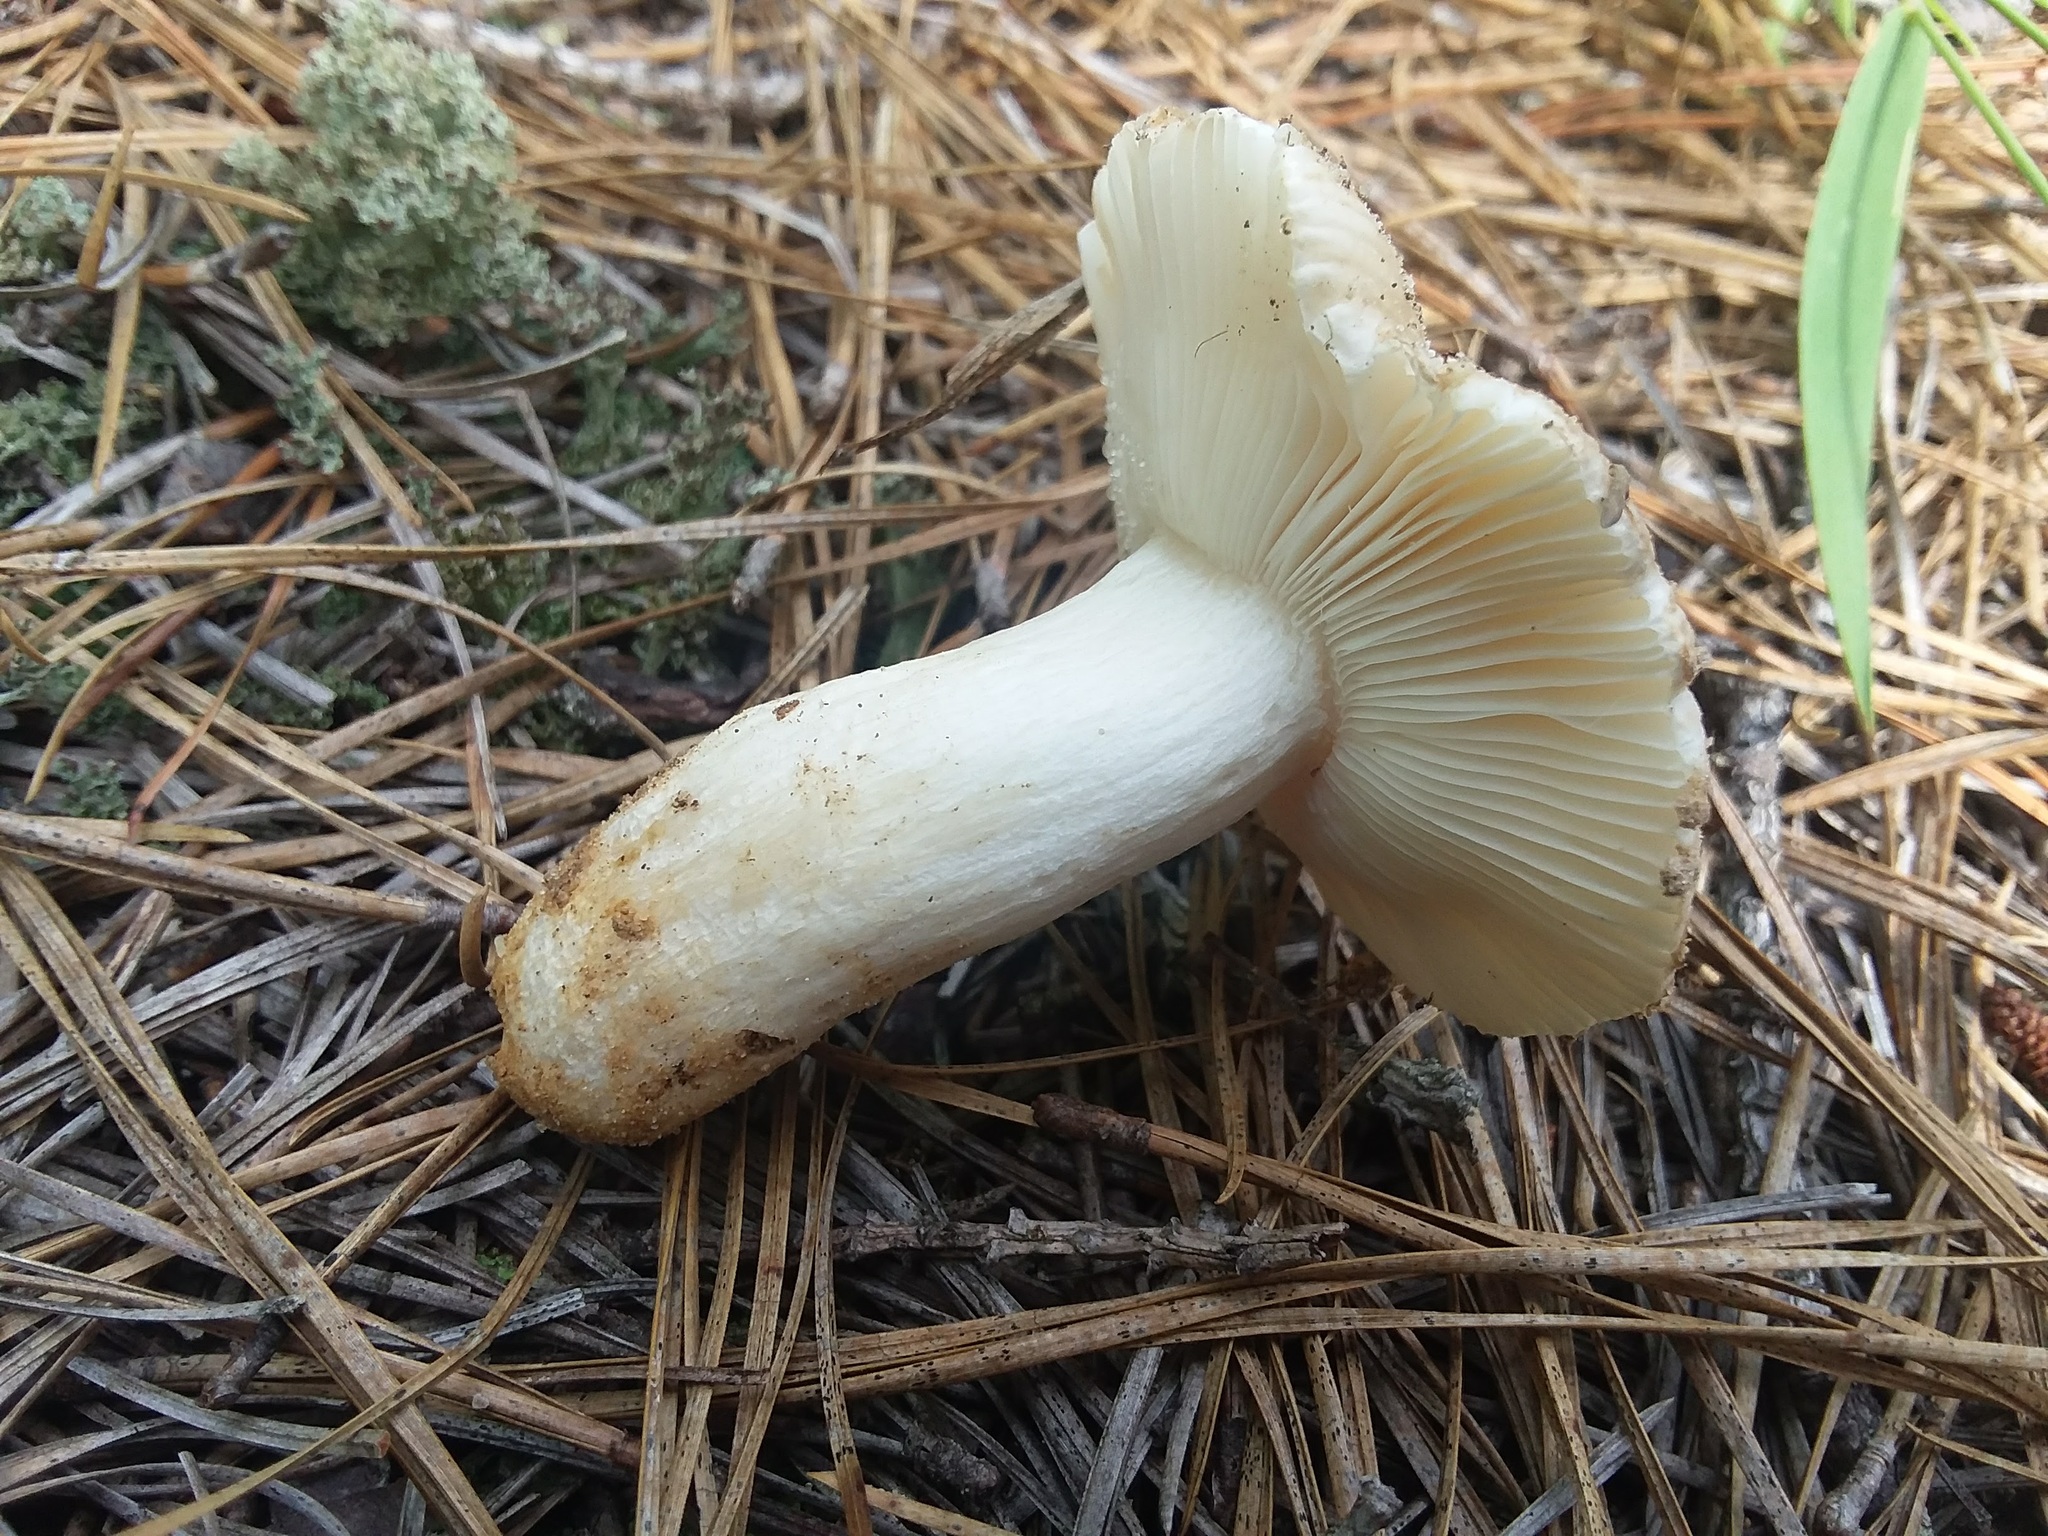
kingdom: Fungi
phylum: Basidiomycota
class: Agaricomycetes
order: Russulales
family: Russulaceae
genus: Russula
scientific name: Russula romagnesiana
